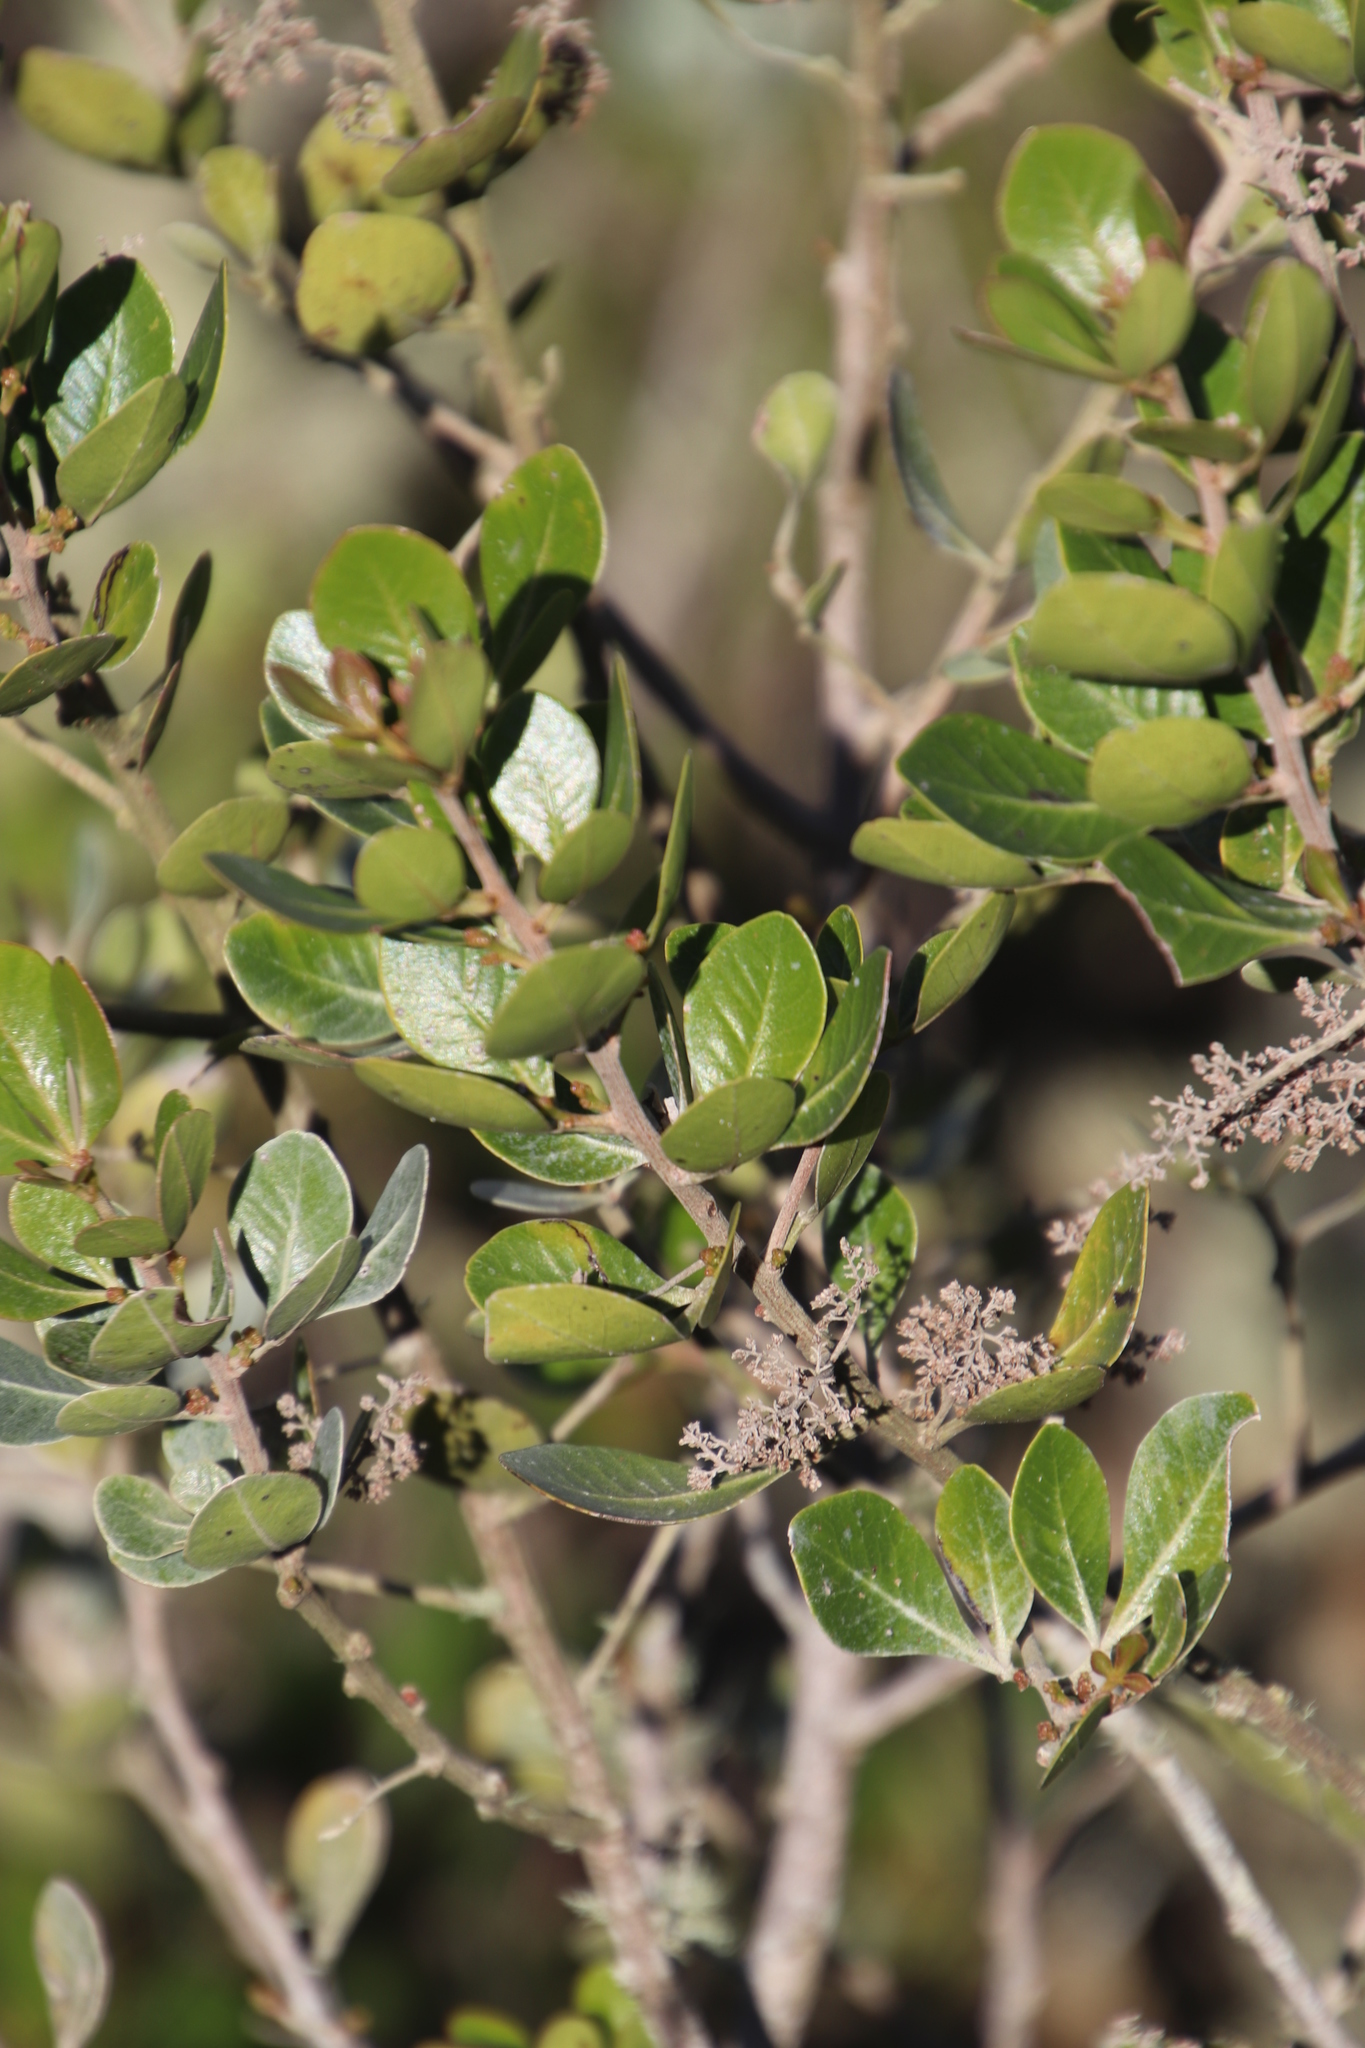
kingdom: Plantae
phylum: Tracheophyta
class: Magnoliopsida
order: Sapindales
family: Anacardiaceae
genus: Searsia
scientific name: Searsia lucida
